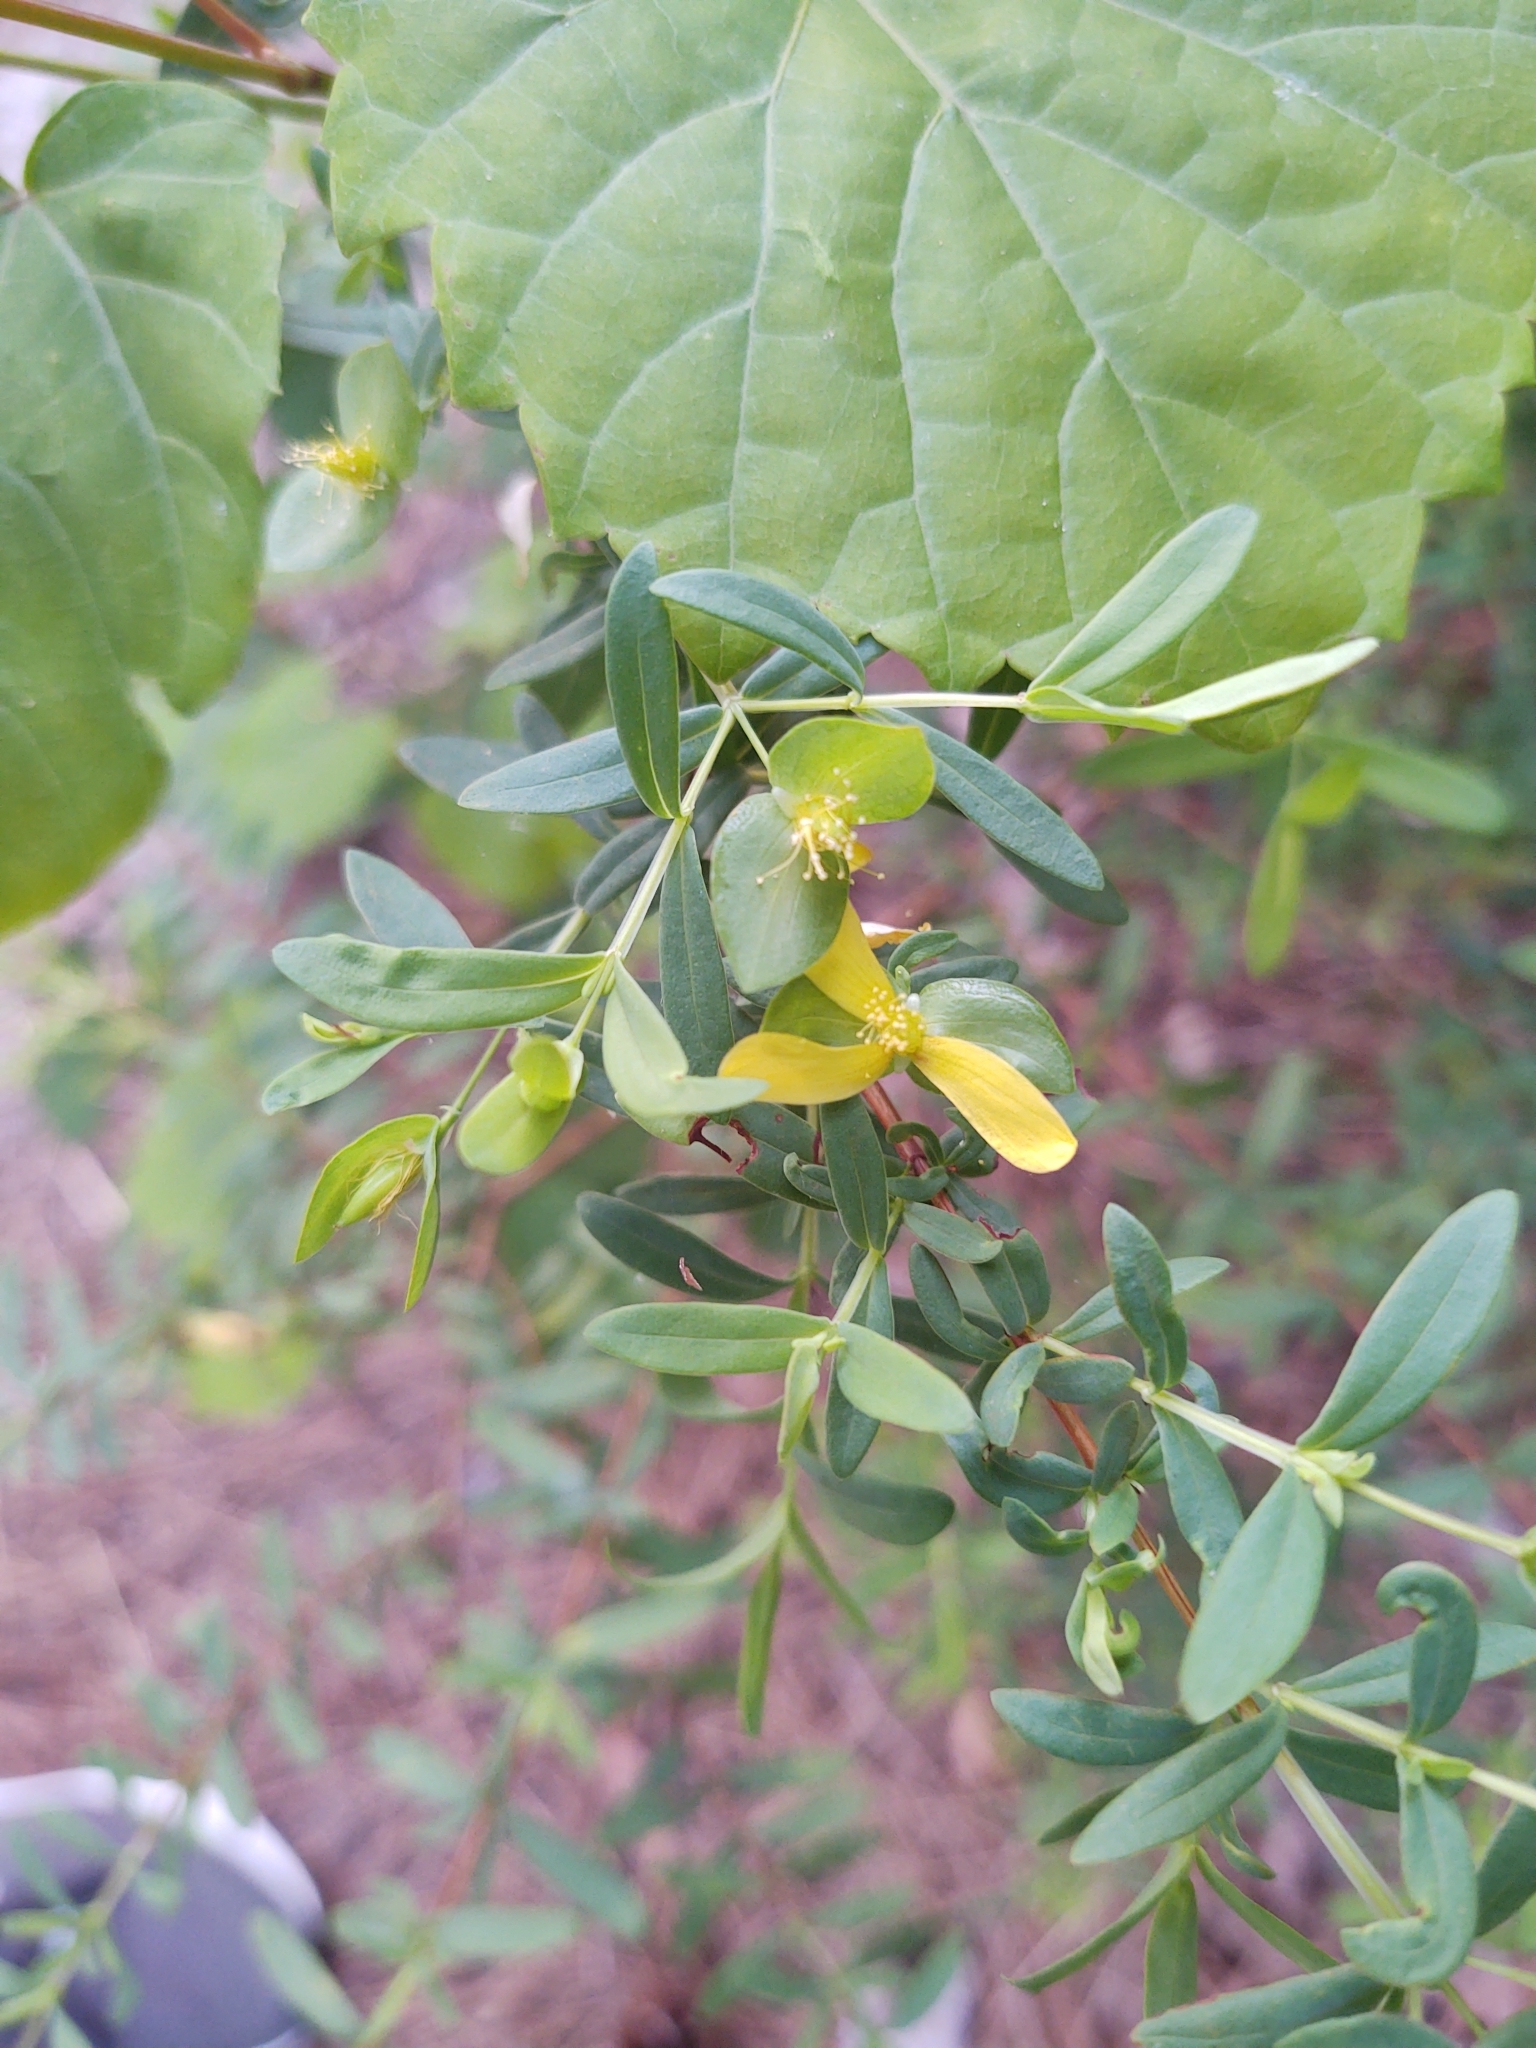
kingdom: Plantae
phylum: Tracheophyta
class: Magnoliopsida
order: Malpighiales
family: Hypericaceae
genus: Hypericum
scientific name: Hypericum hypericoides
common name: St. andrew's cross
